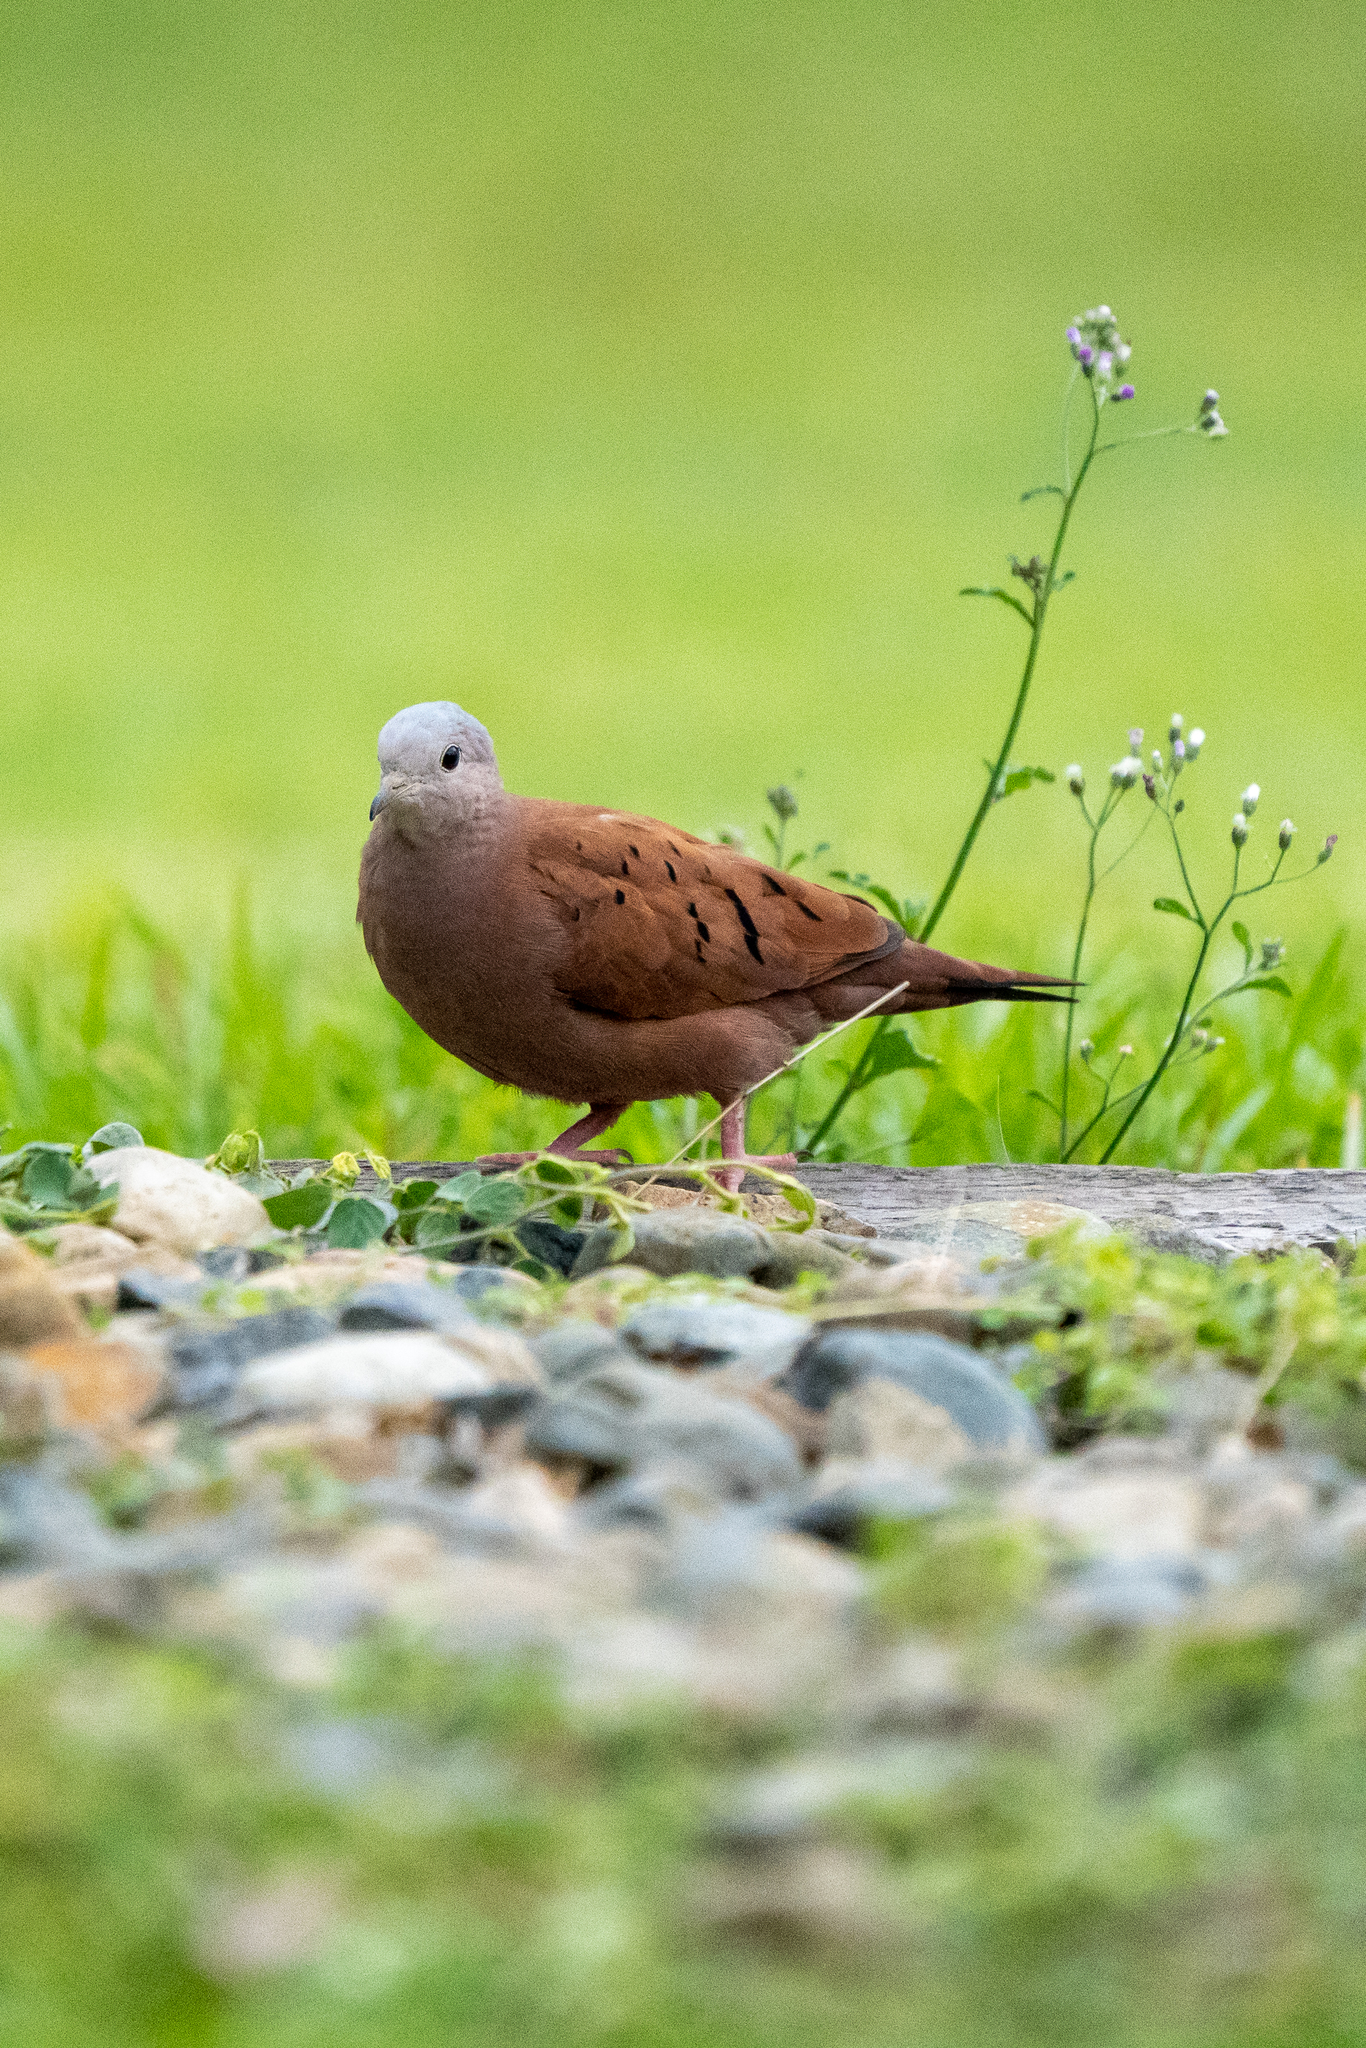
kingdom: Animalia
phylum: Chordata
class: Aves
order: Columbiformes
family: Columbidae
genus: Columbina
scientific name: Columbina talpacoti
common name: Ruddy ground dove
